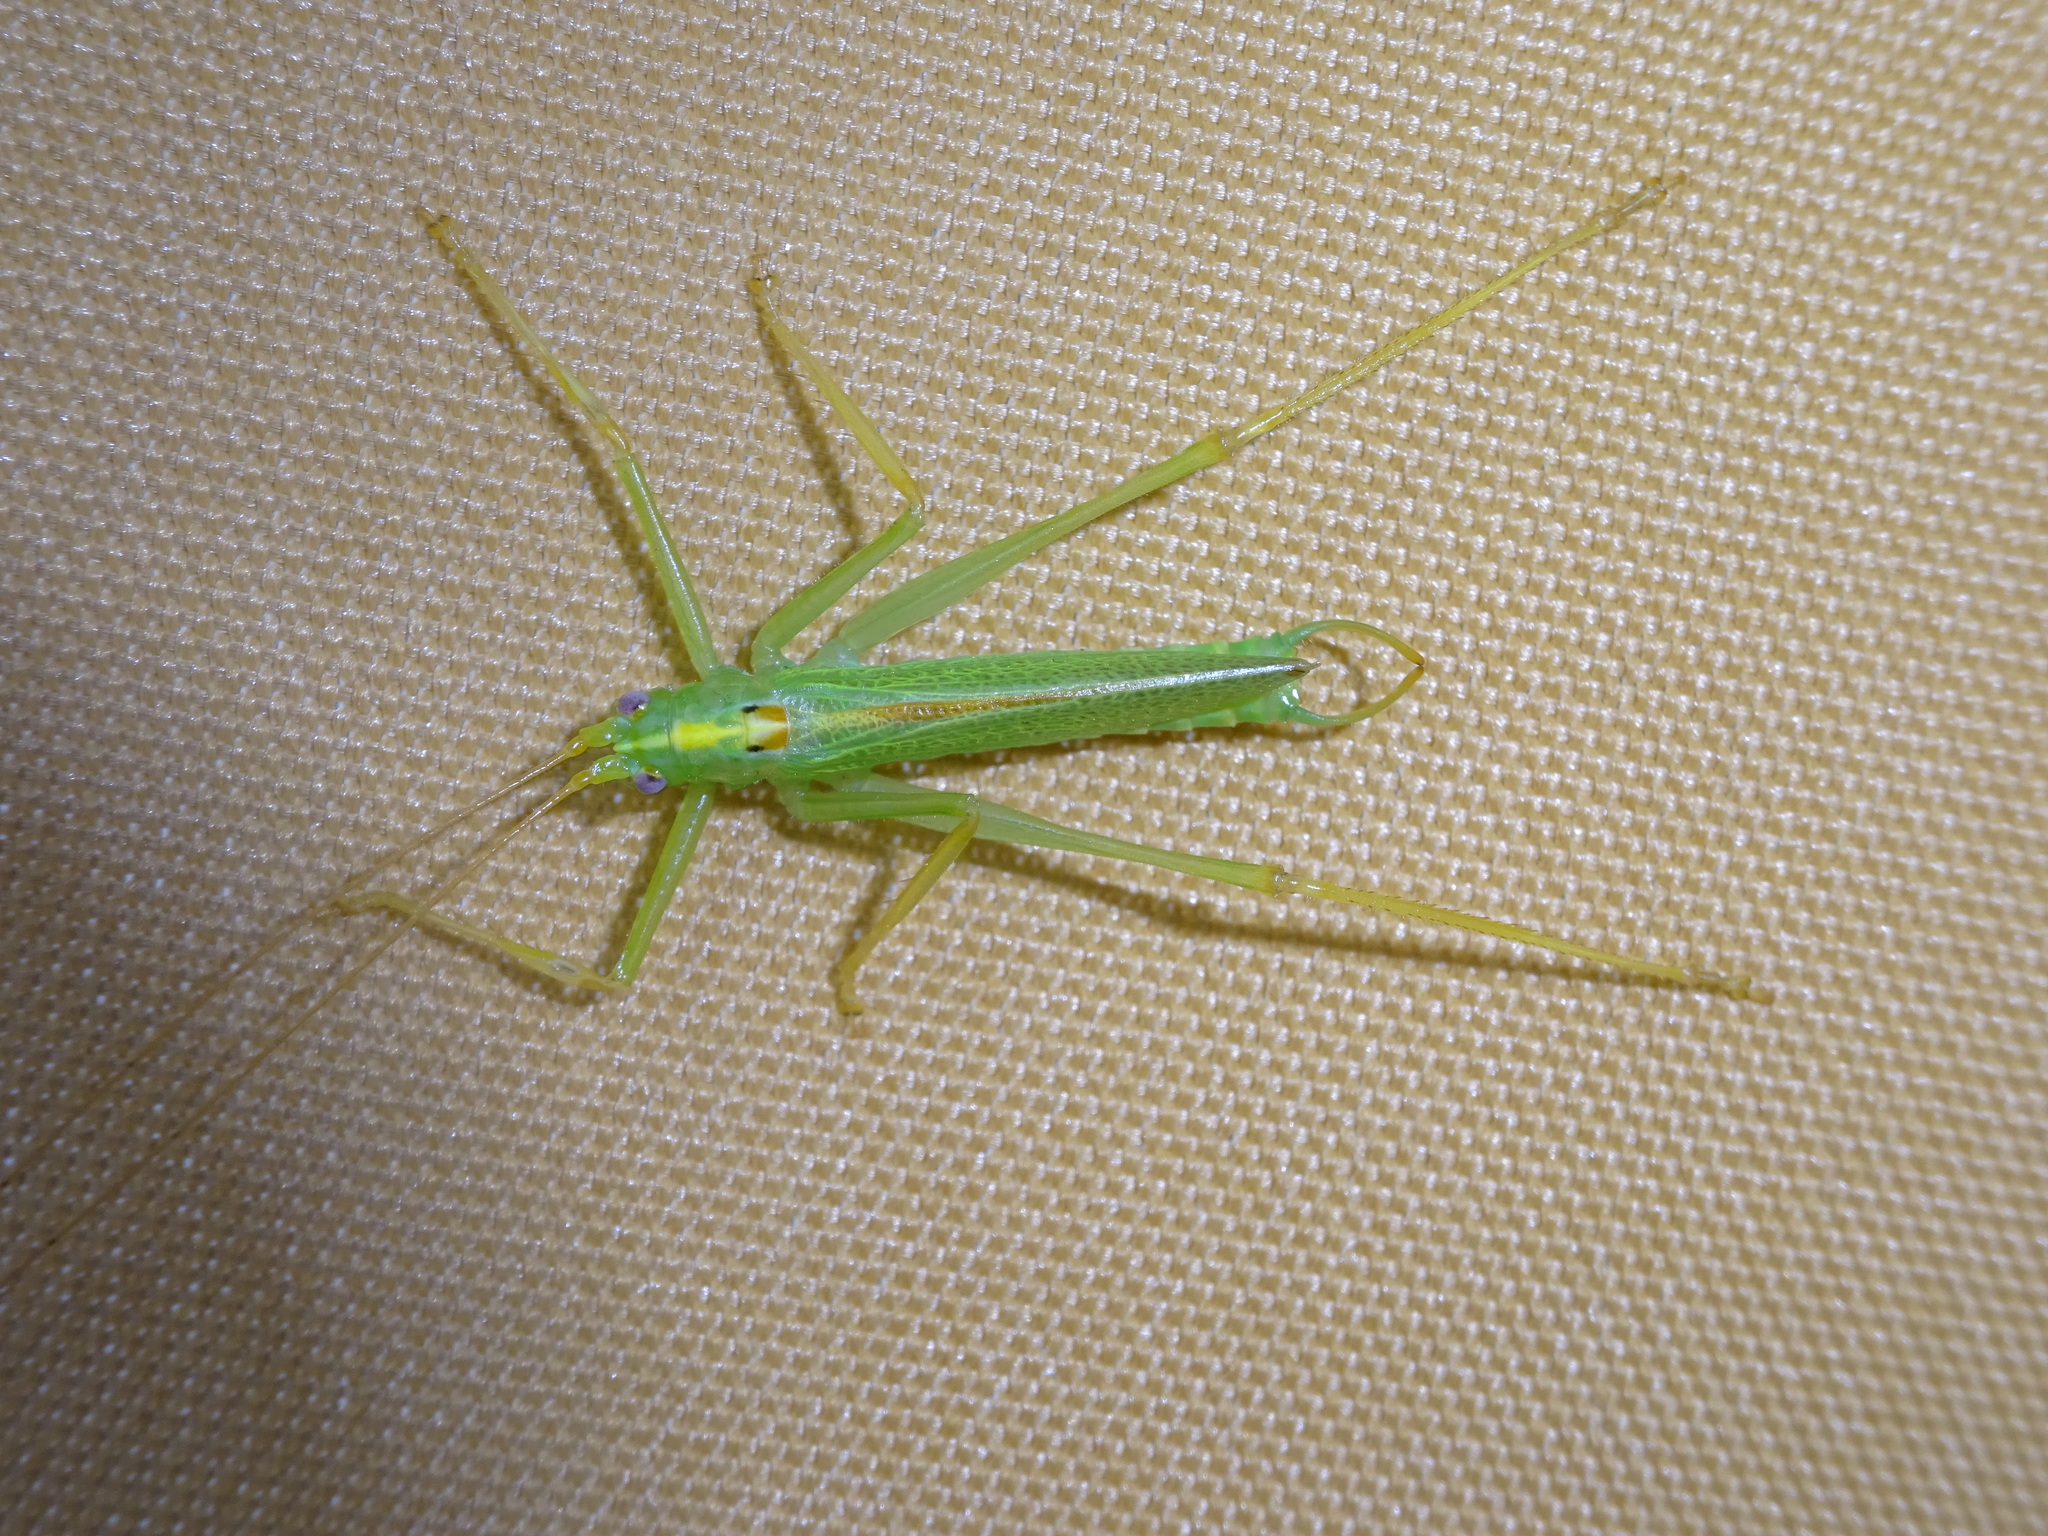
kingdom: Animalia
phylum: Arthropoda
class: Insecta
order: Orthoptera
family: Tettigoniidae
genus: Meconema
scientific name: Meconema thalassinum
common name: Oak bush-cricket
